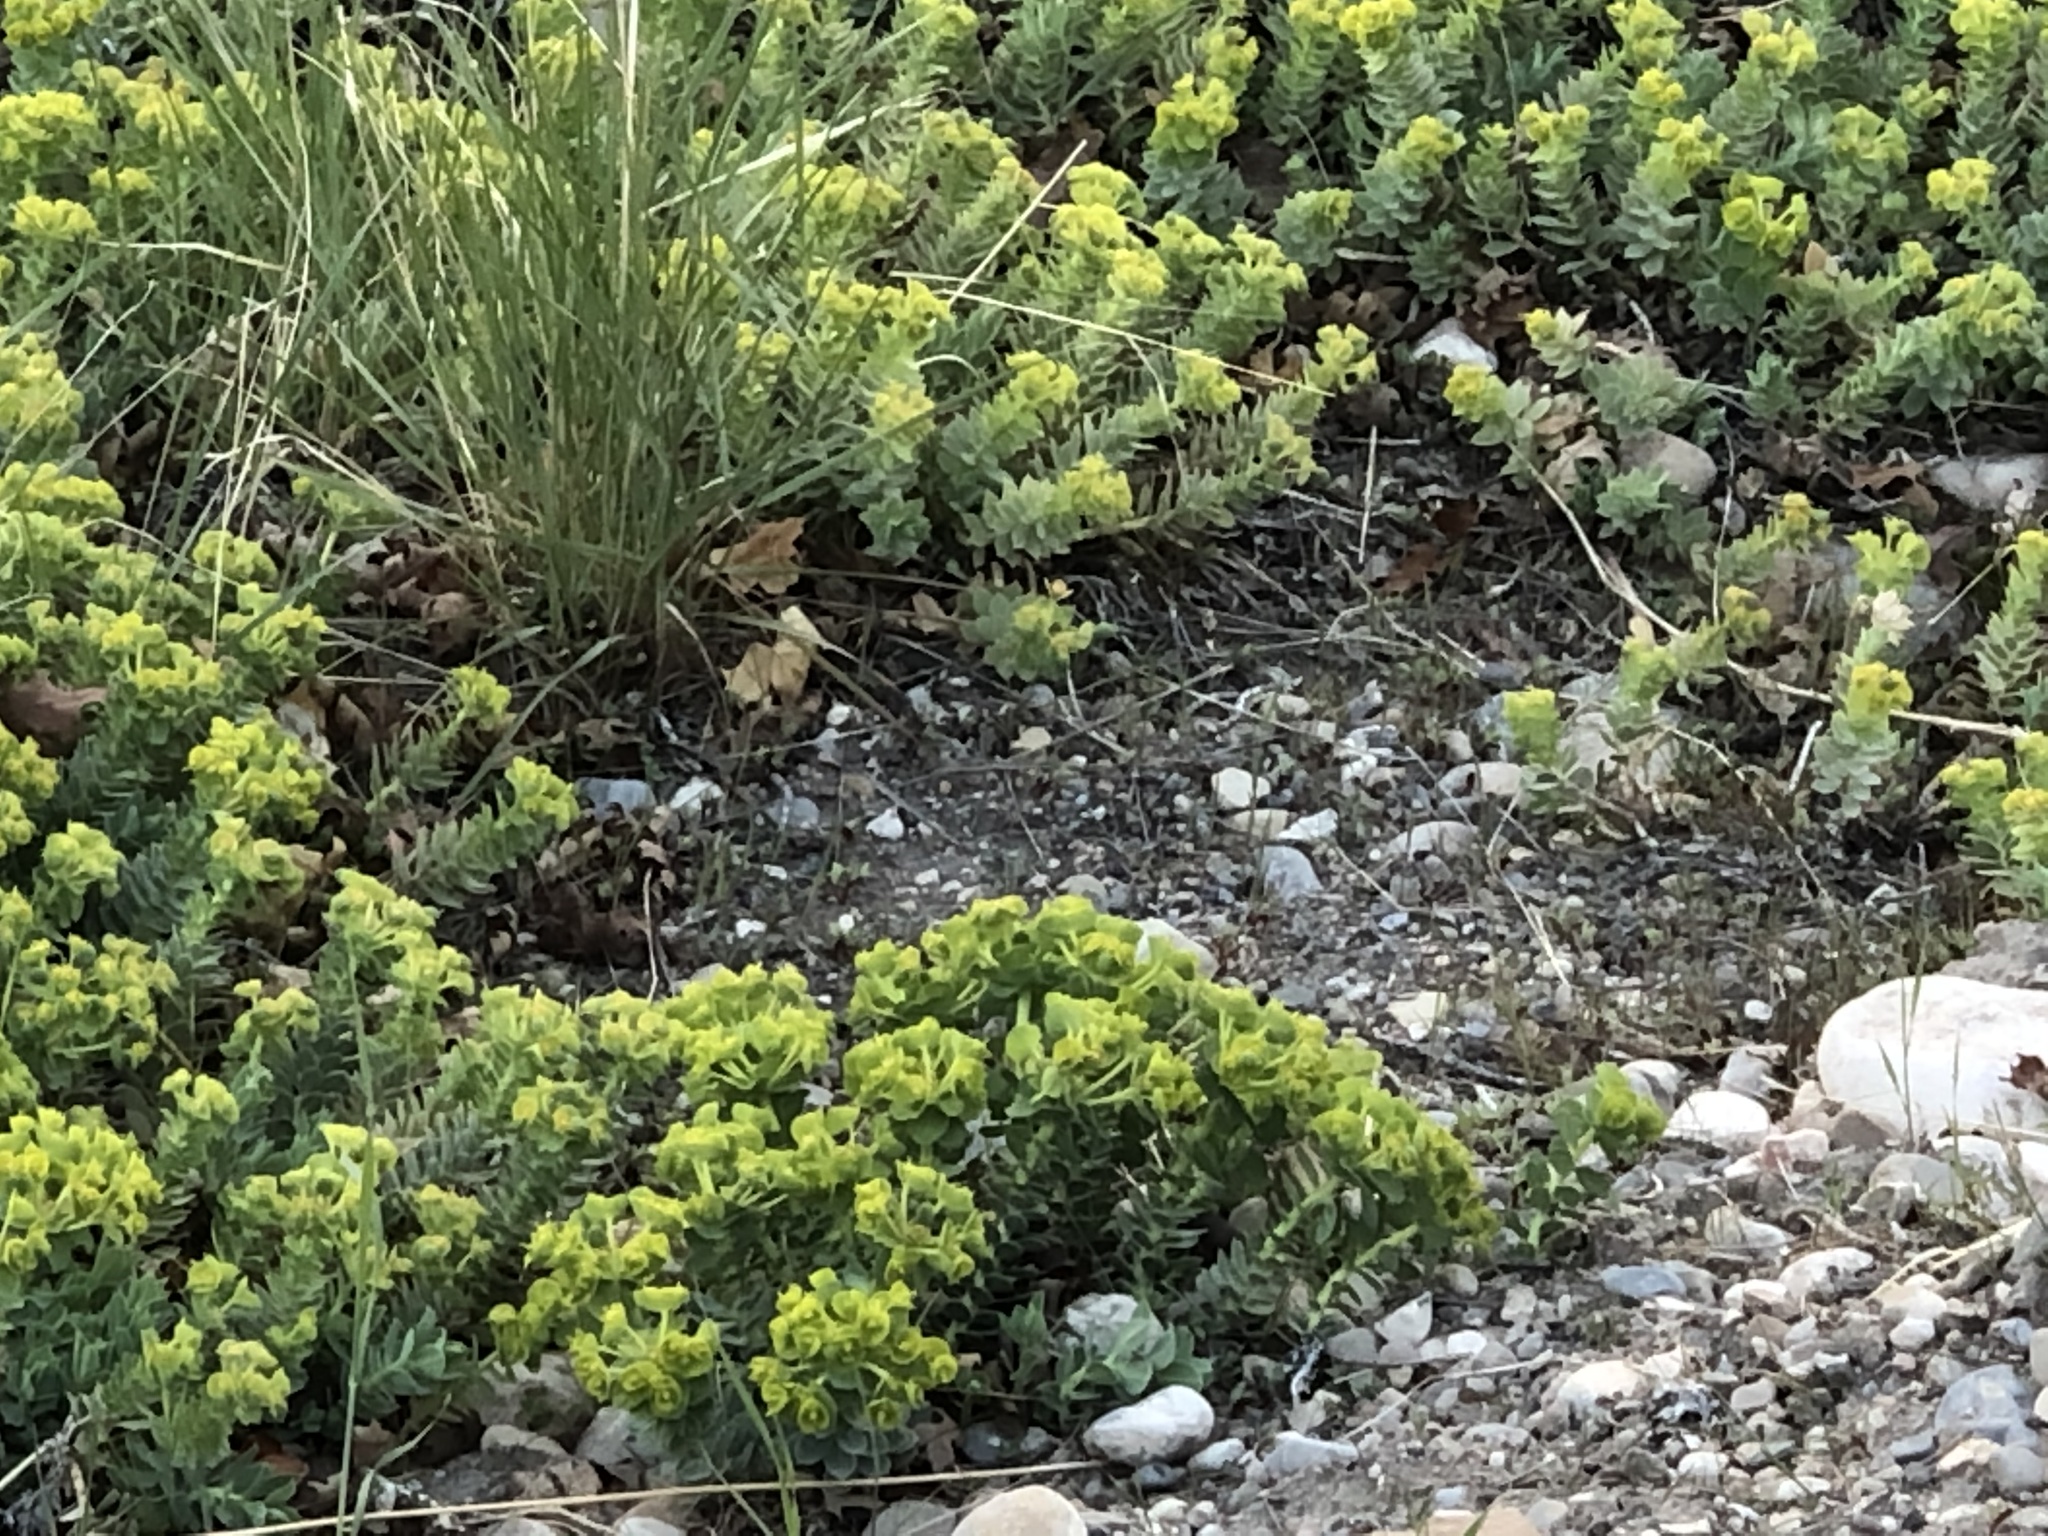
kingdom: Plantae
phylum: Tracheophyta
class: Magnoliopsida
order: Malpighiales
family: Euphorbiaceae
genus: Euphorbia
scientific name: Euphorbia myrsinites
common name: Myrtle spurge
